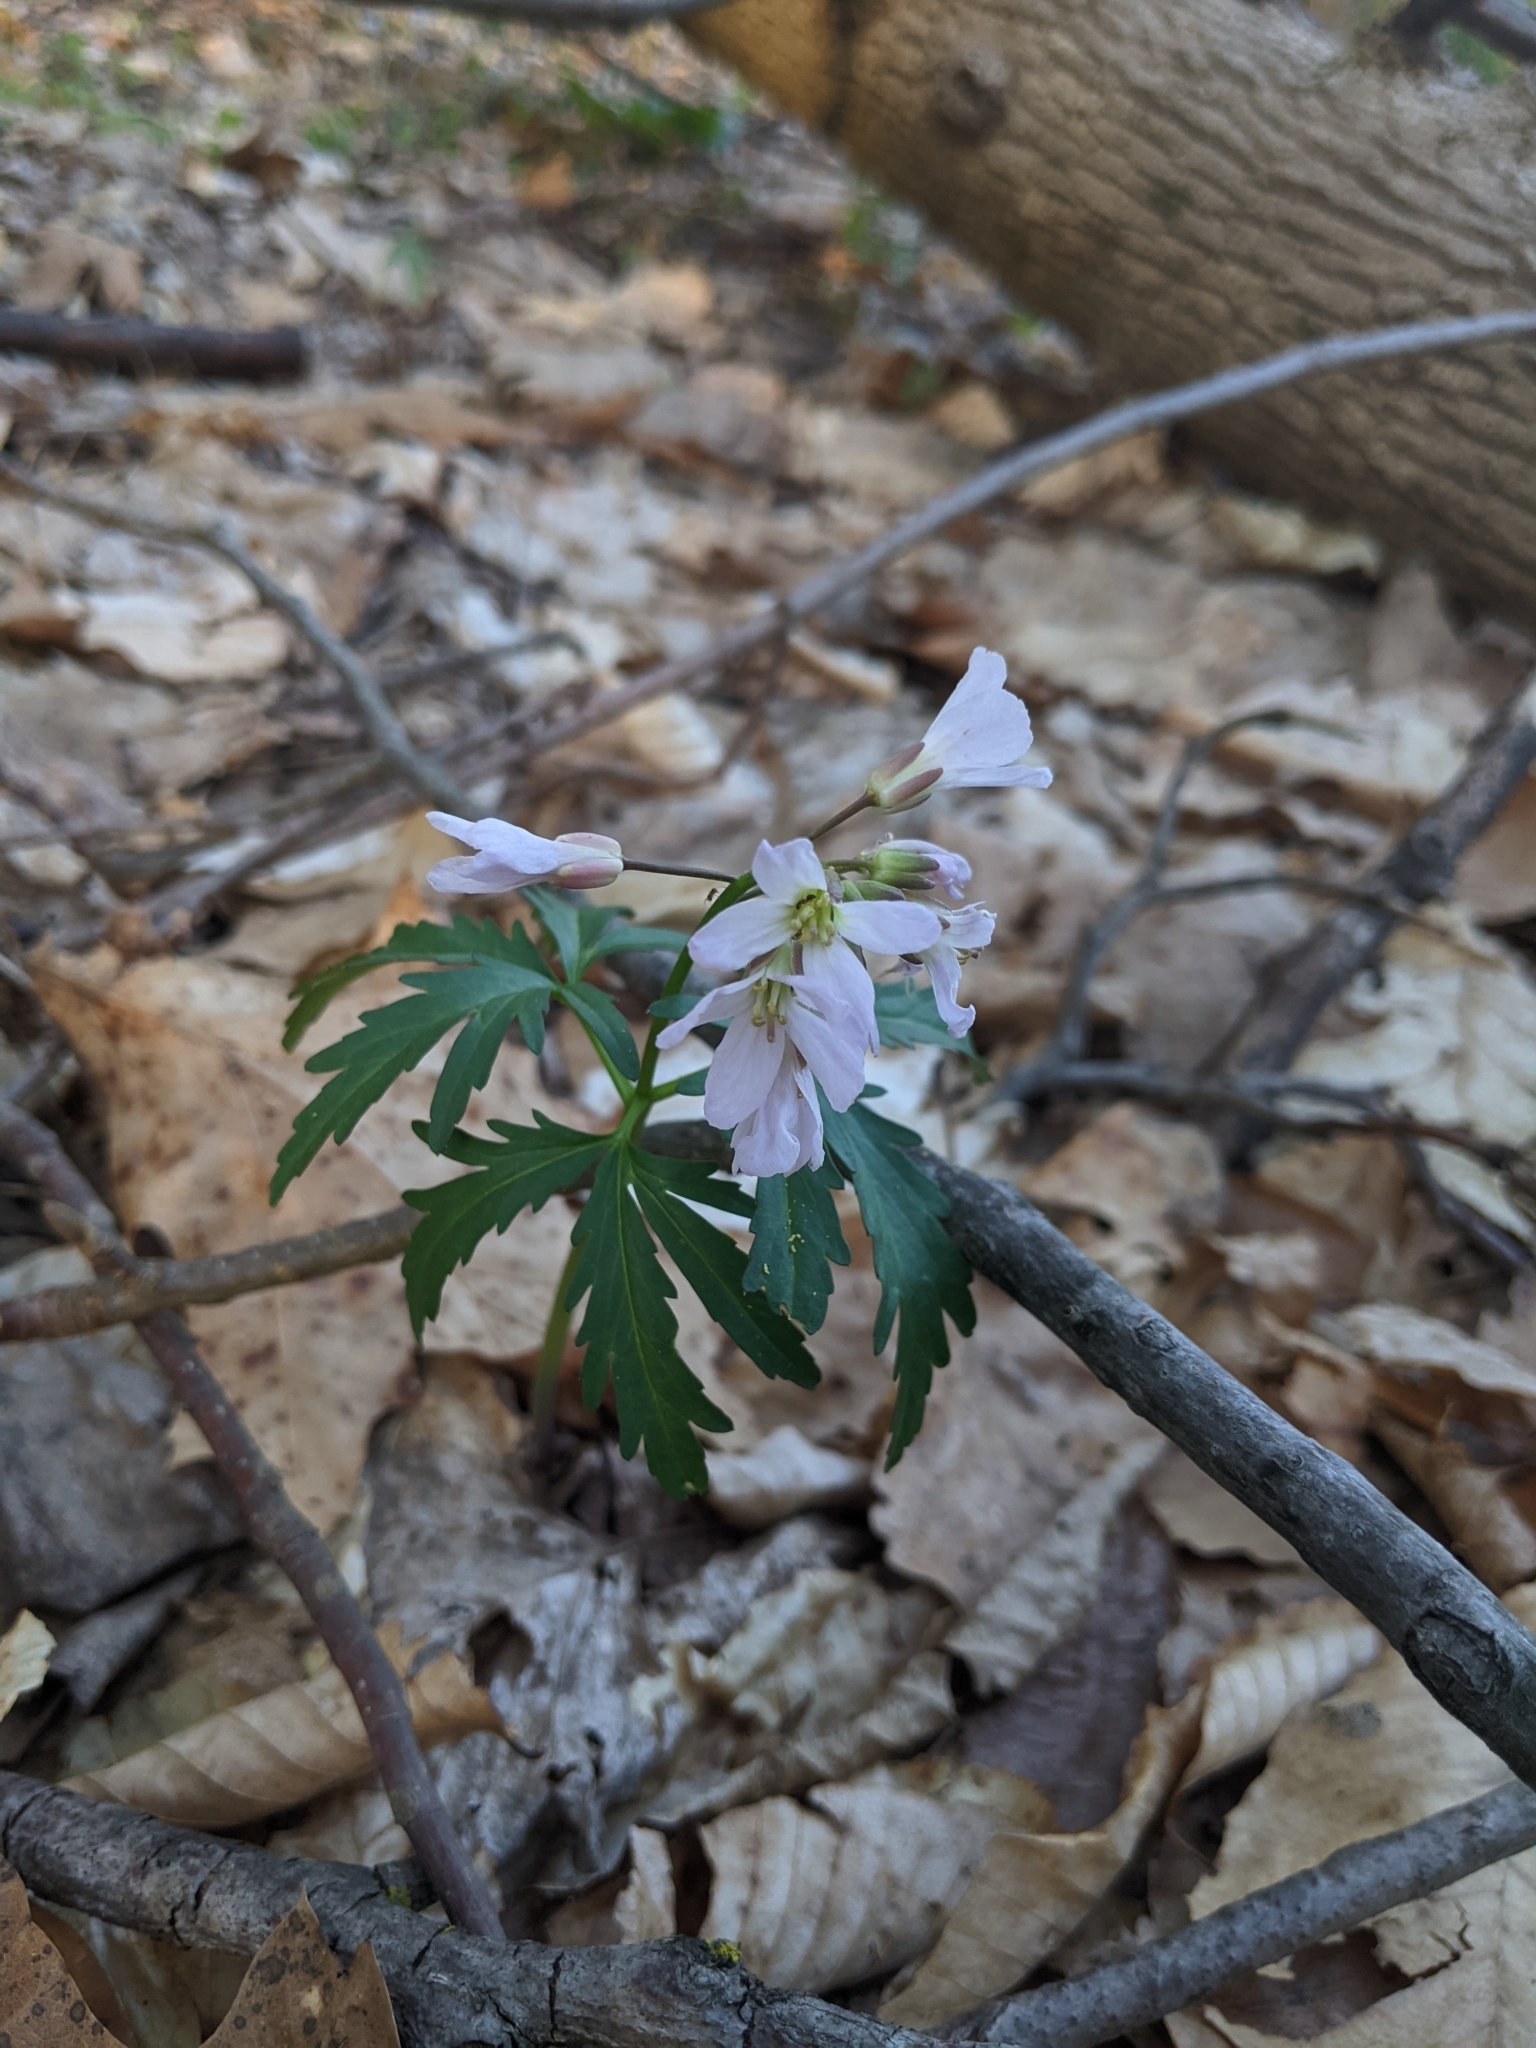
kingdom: Plantae
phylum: Tracheophyta
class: Magnoliopsida
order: Brassicales
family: Brassicaceae
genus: Cardamine
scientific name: Cardamine concatenata
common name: Cut-leaf toothcup
